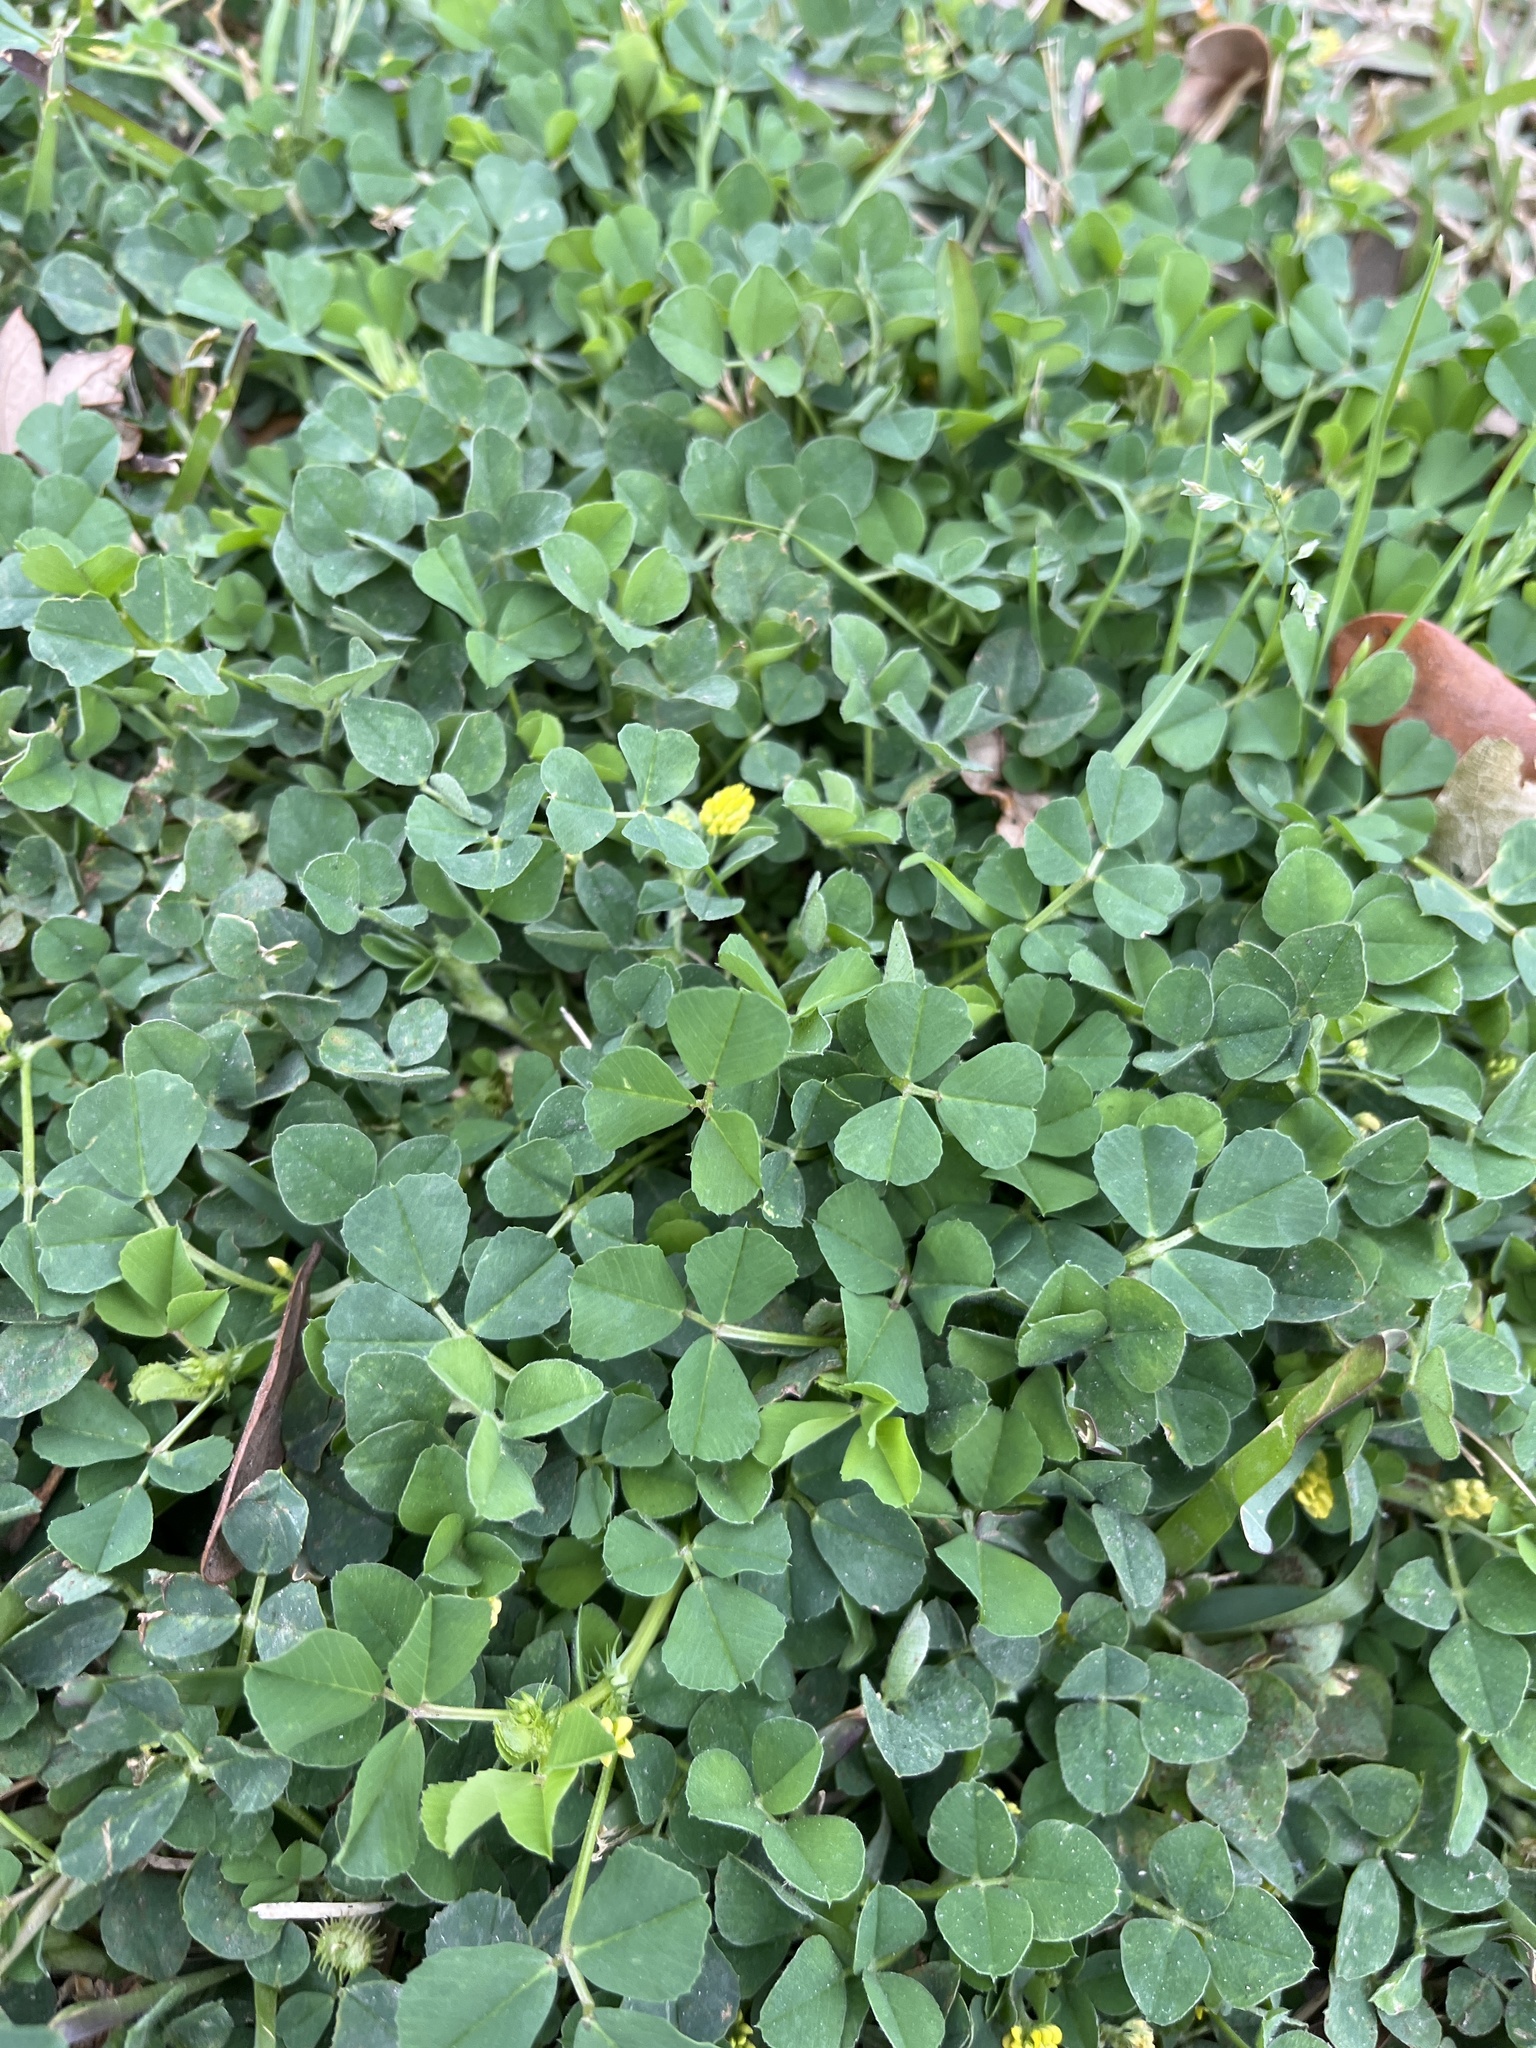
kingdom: Plantae
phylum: Tracheophyta
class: Magnoliopsida
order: Fabales
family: Fabaceae
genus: Medicago
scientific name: Medicago lupulina
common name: Black medick
